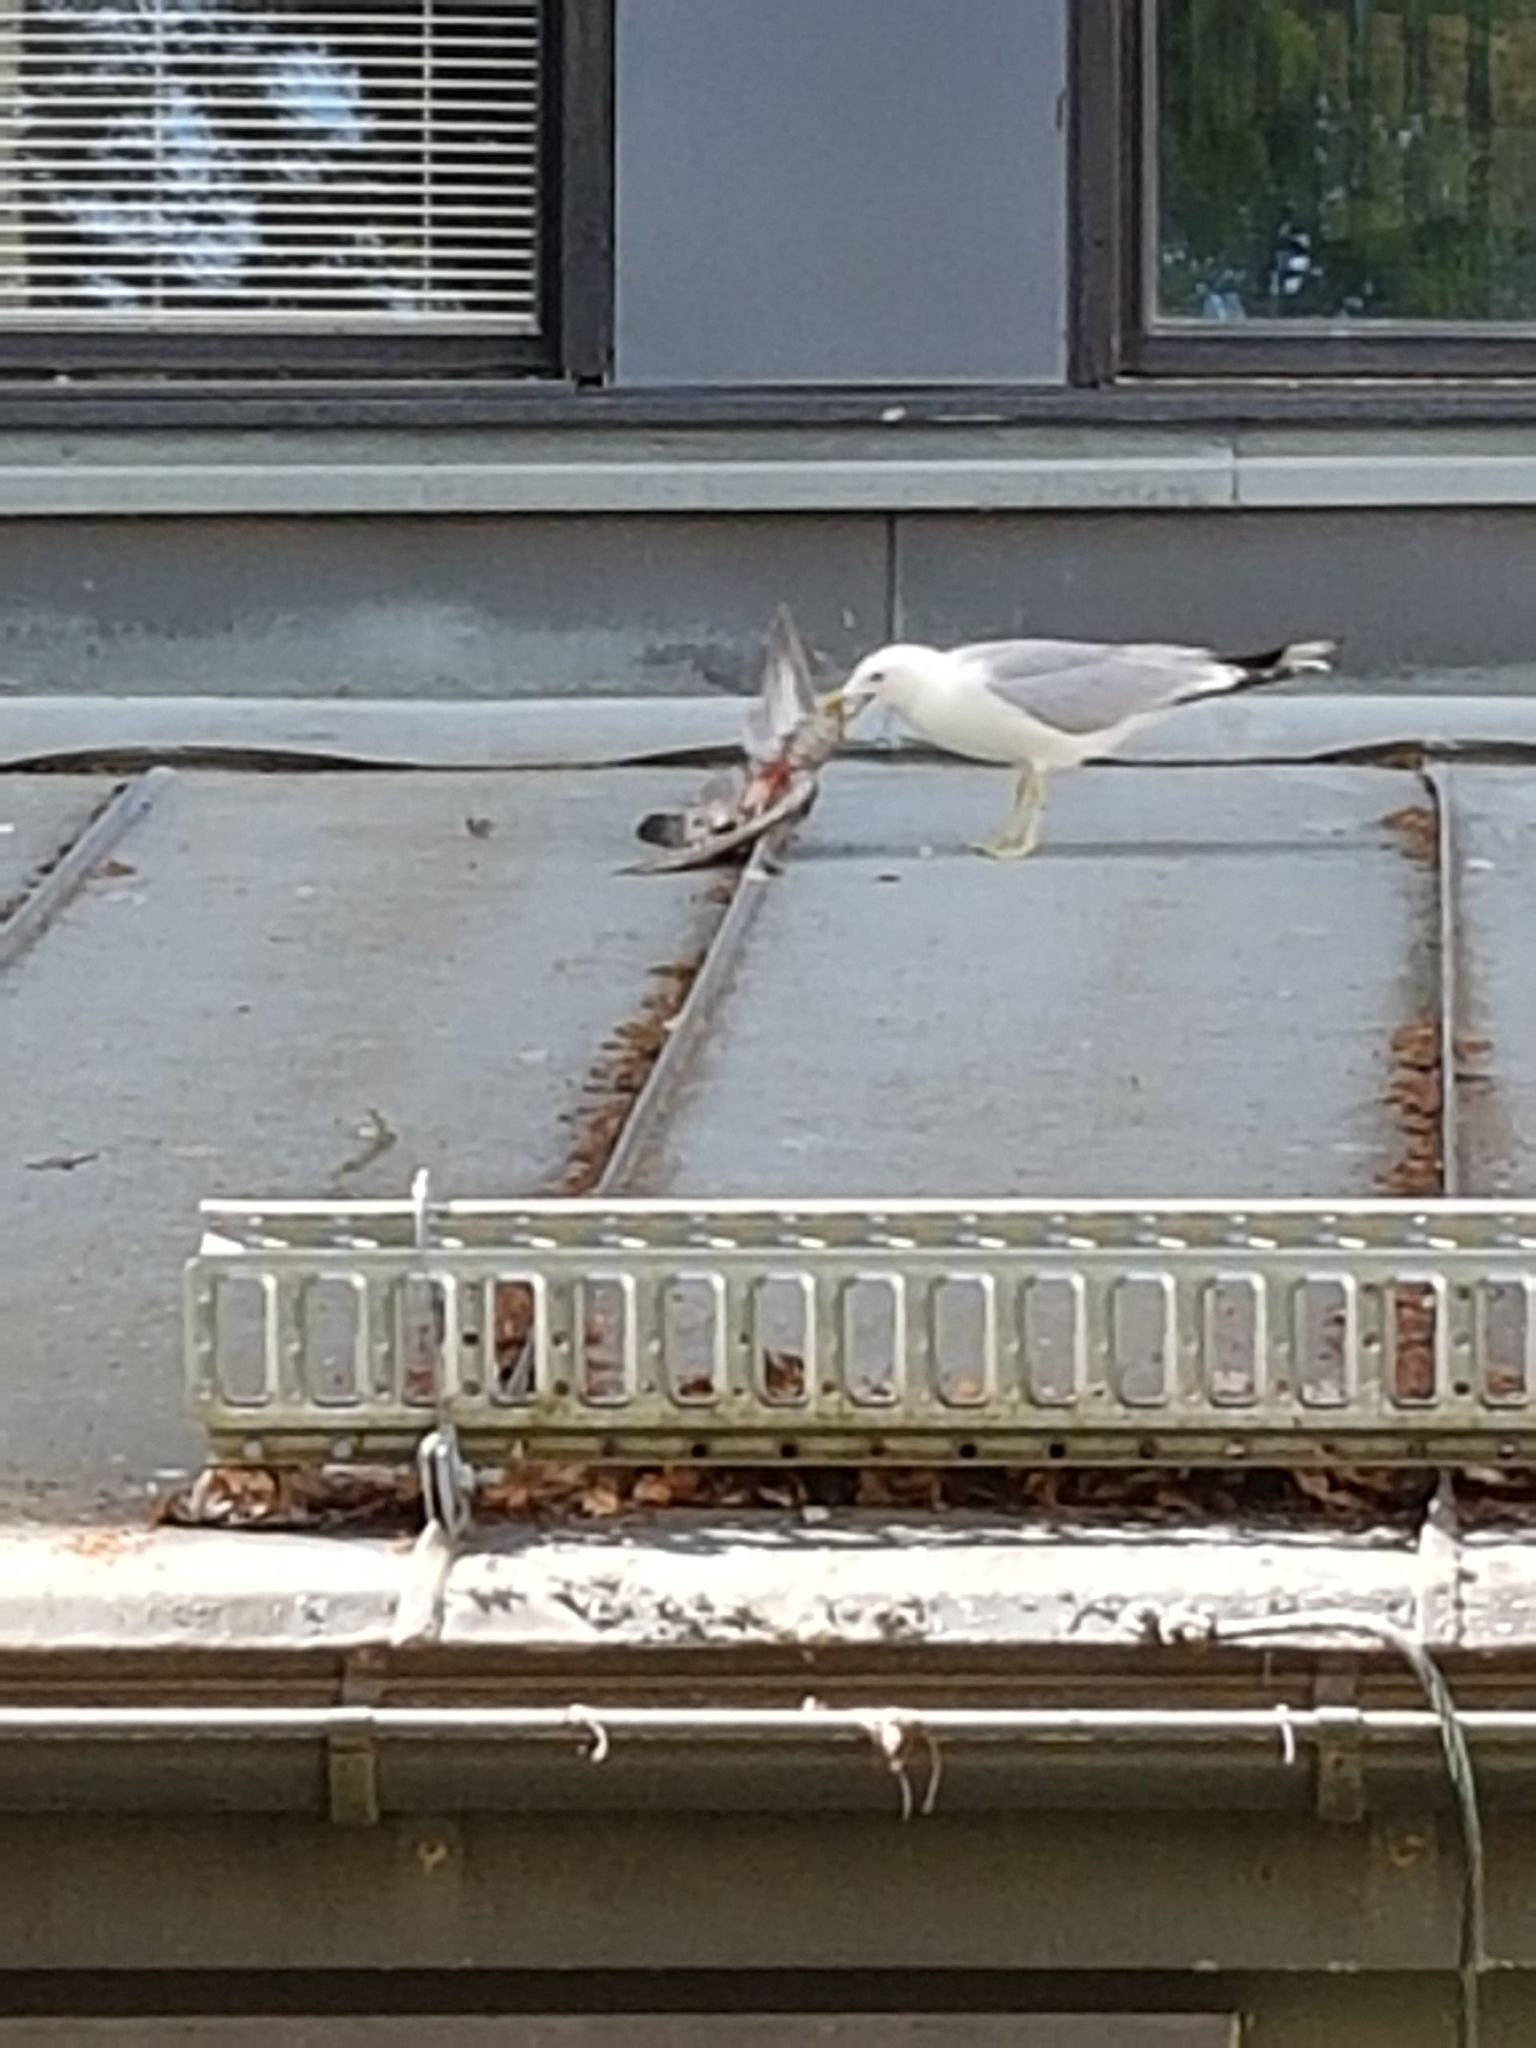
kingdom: Animalia
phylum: Chordata
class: Aves
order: Charadriiformes
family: Laridae
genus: Larus
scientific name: Larus canus
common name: Mew gull
